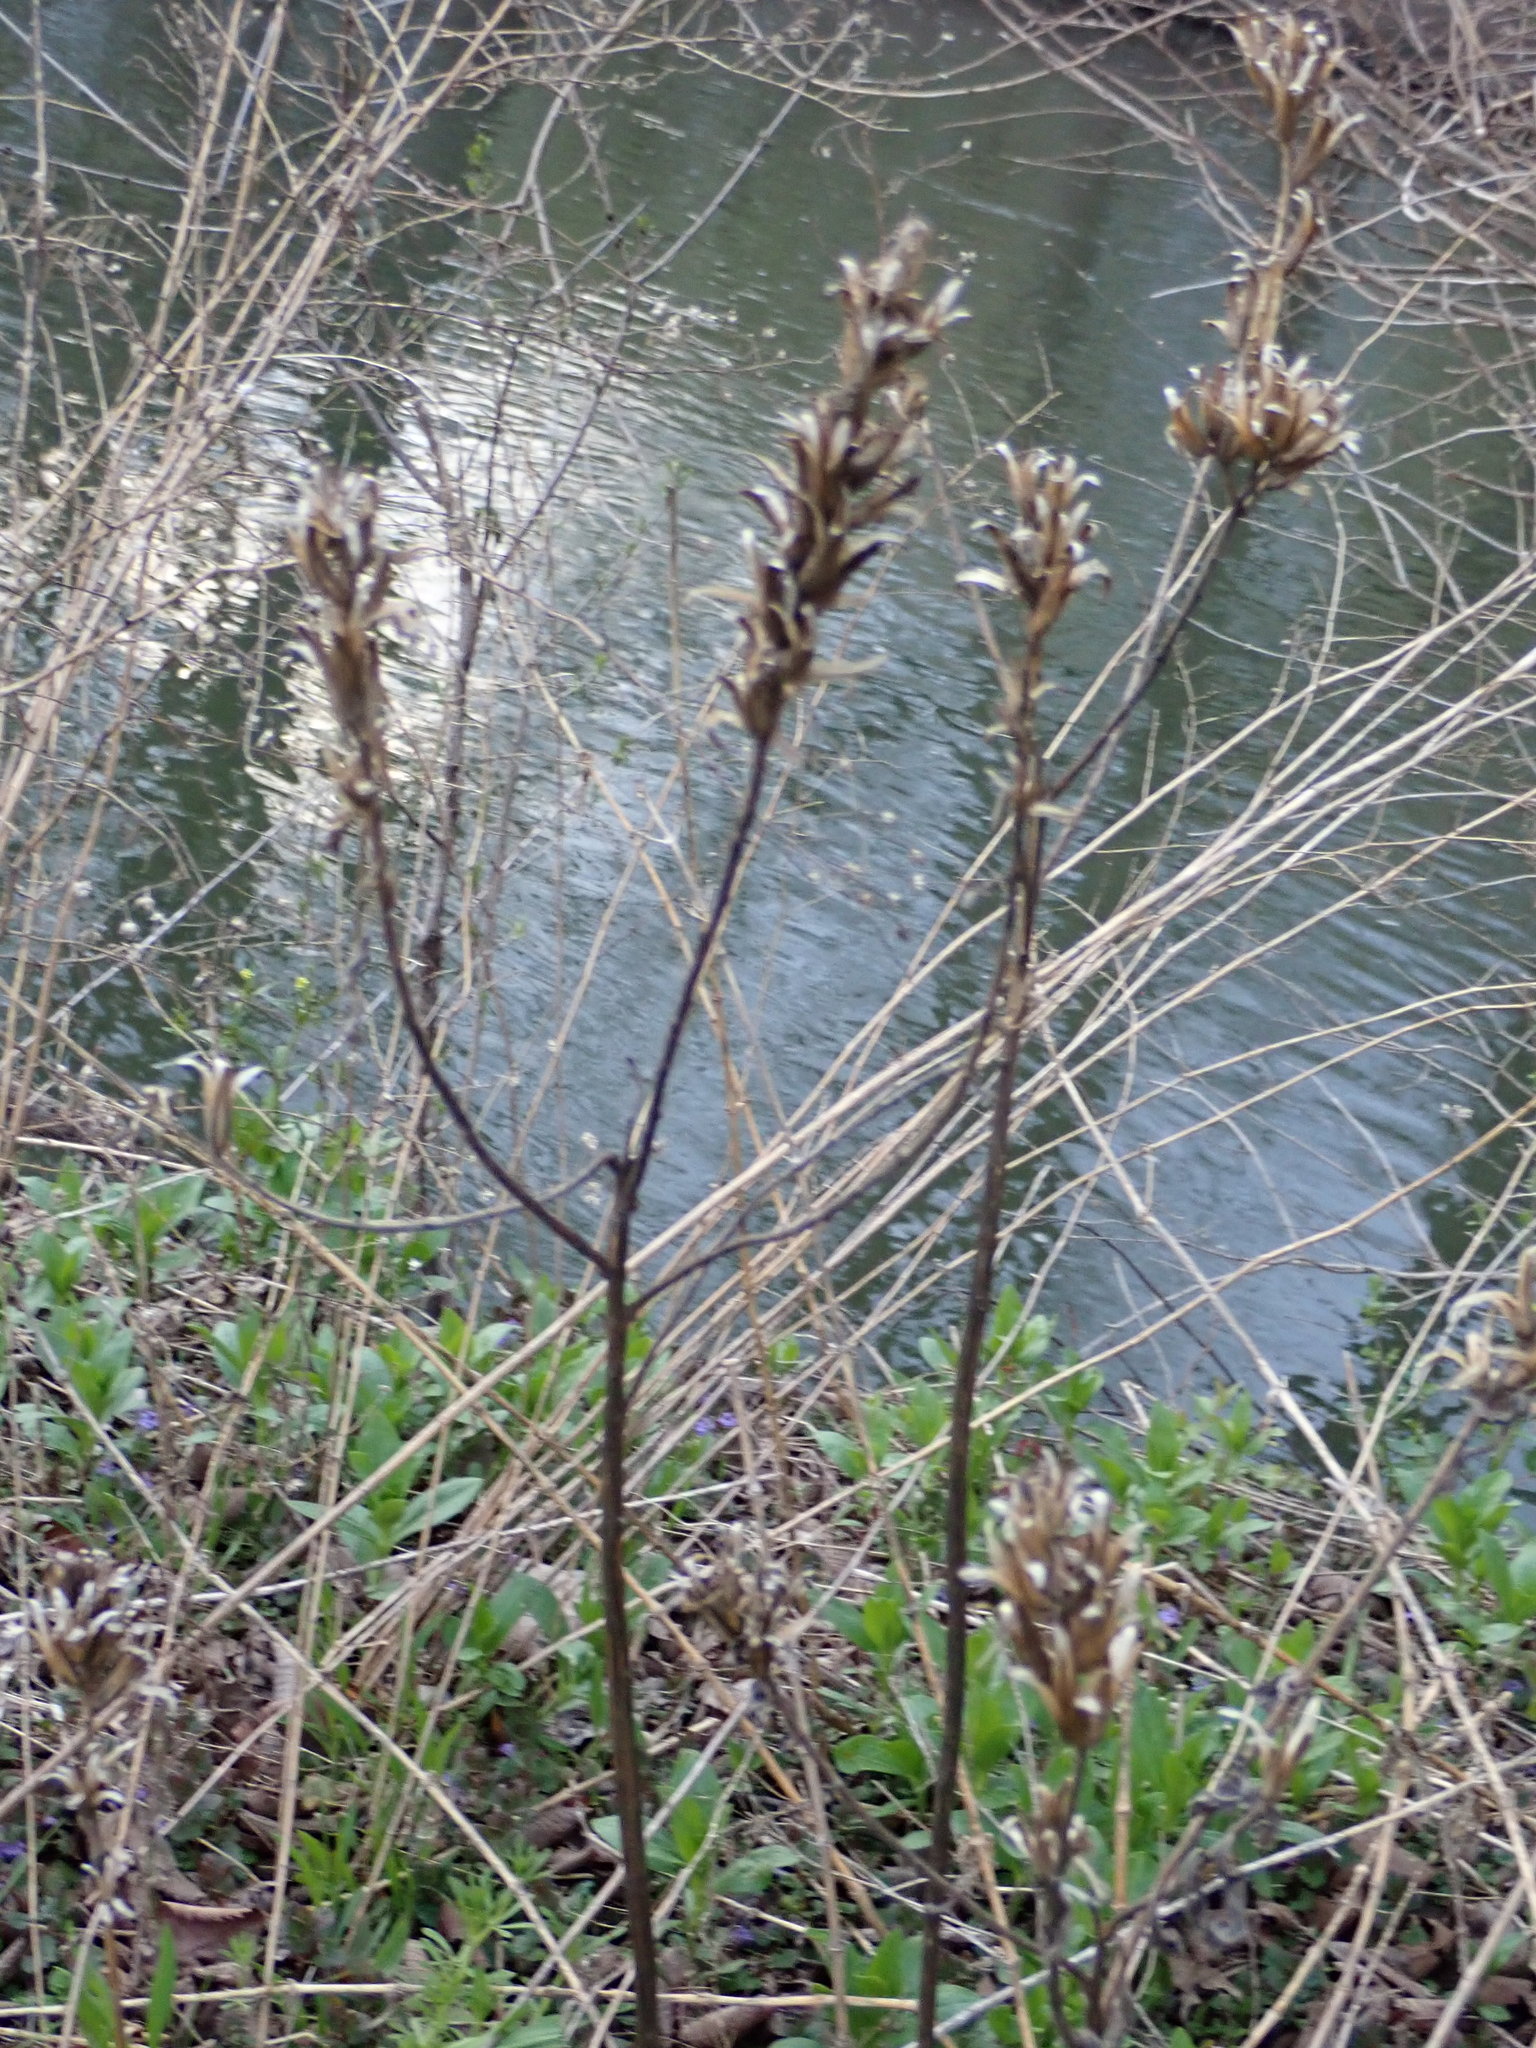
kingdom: Plantae
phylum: Tracheophyta
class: Magnoliopsida
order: Myrtales
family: Onagraceae
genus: Oenothera
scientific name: Oenothera biennis
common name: Common evening-primrose
